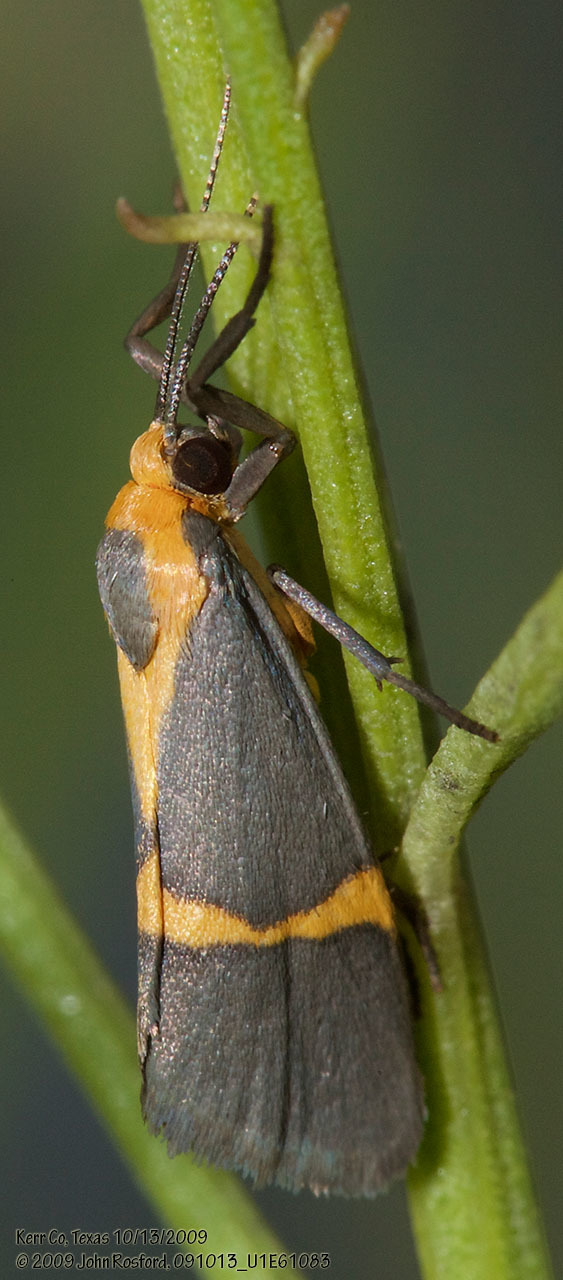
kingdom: Animalia
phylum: Arthropoda
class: Insecta
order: Lepidoptera
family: Erebidae
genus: Cisthene
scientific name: Cisthene tenuifascia
